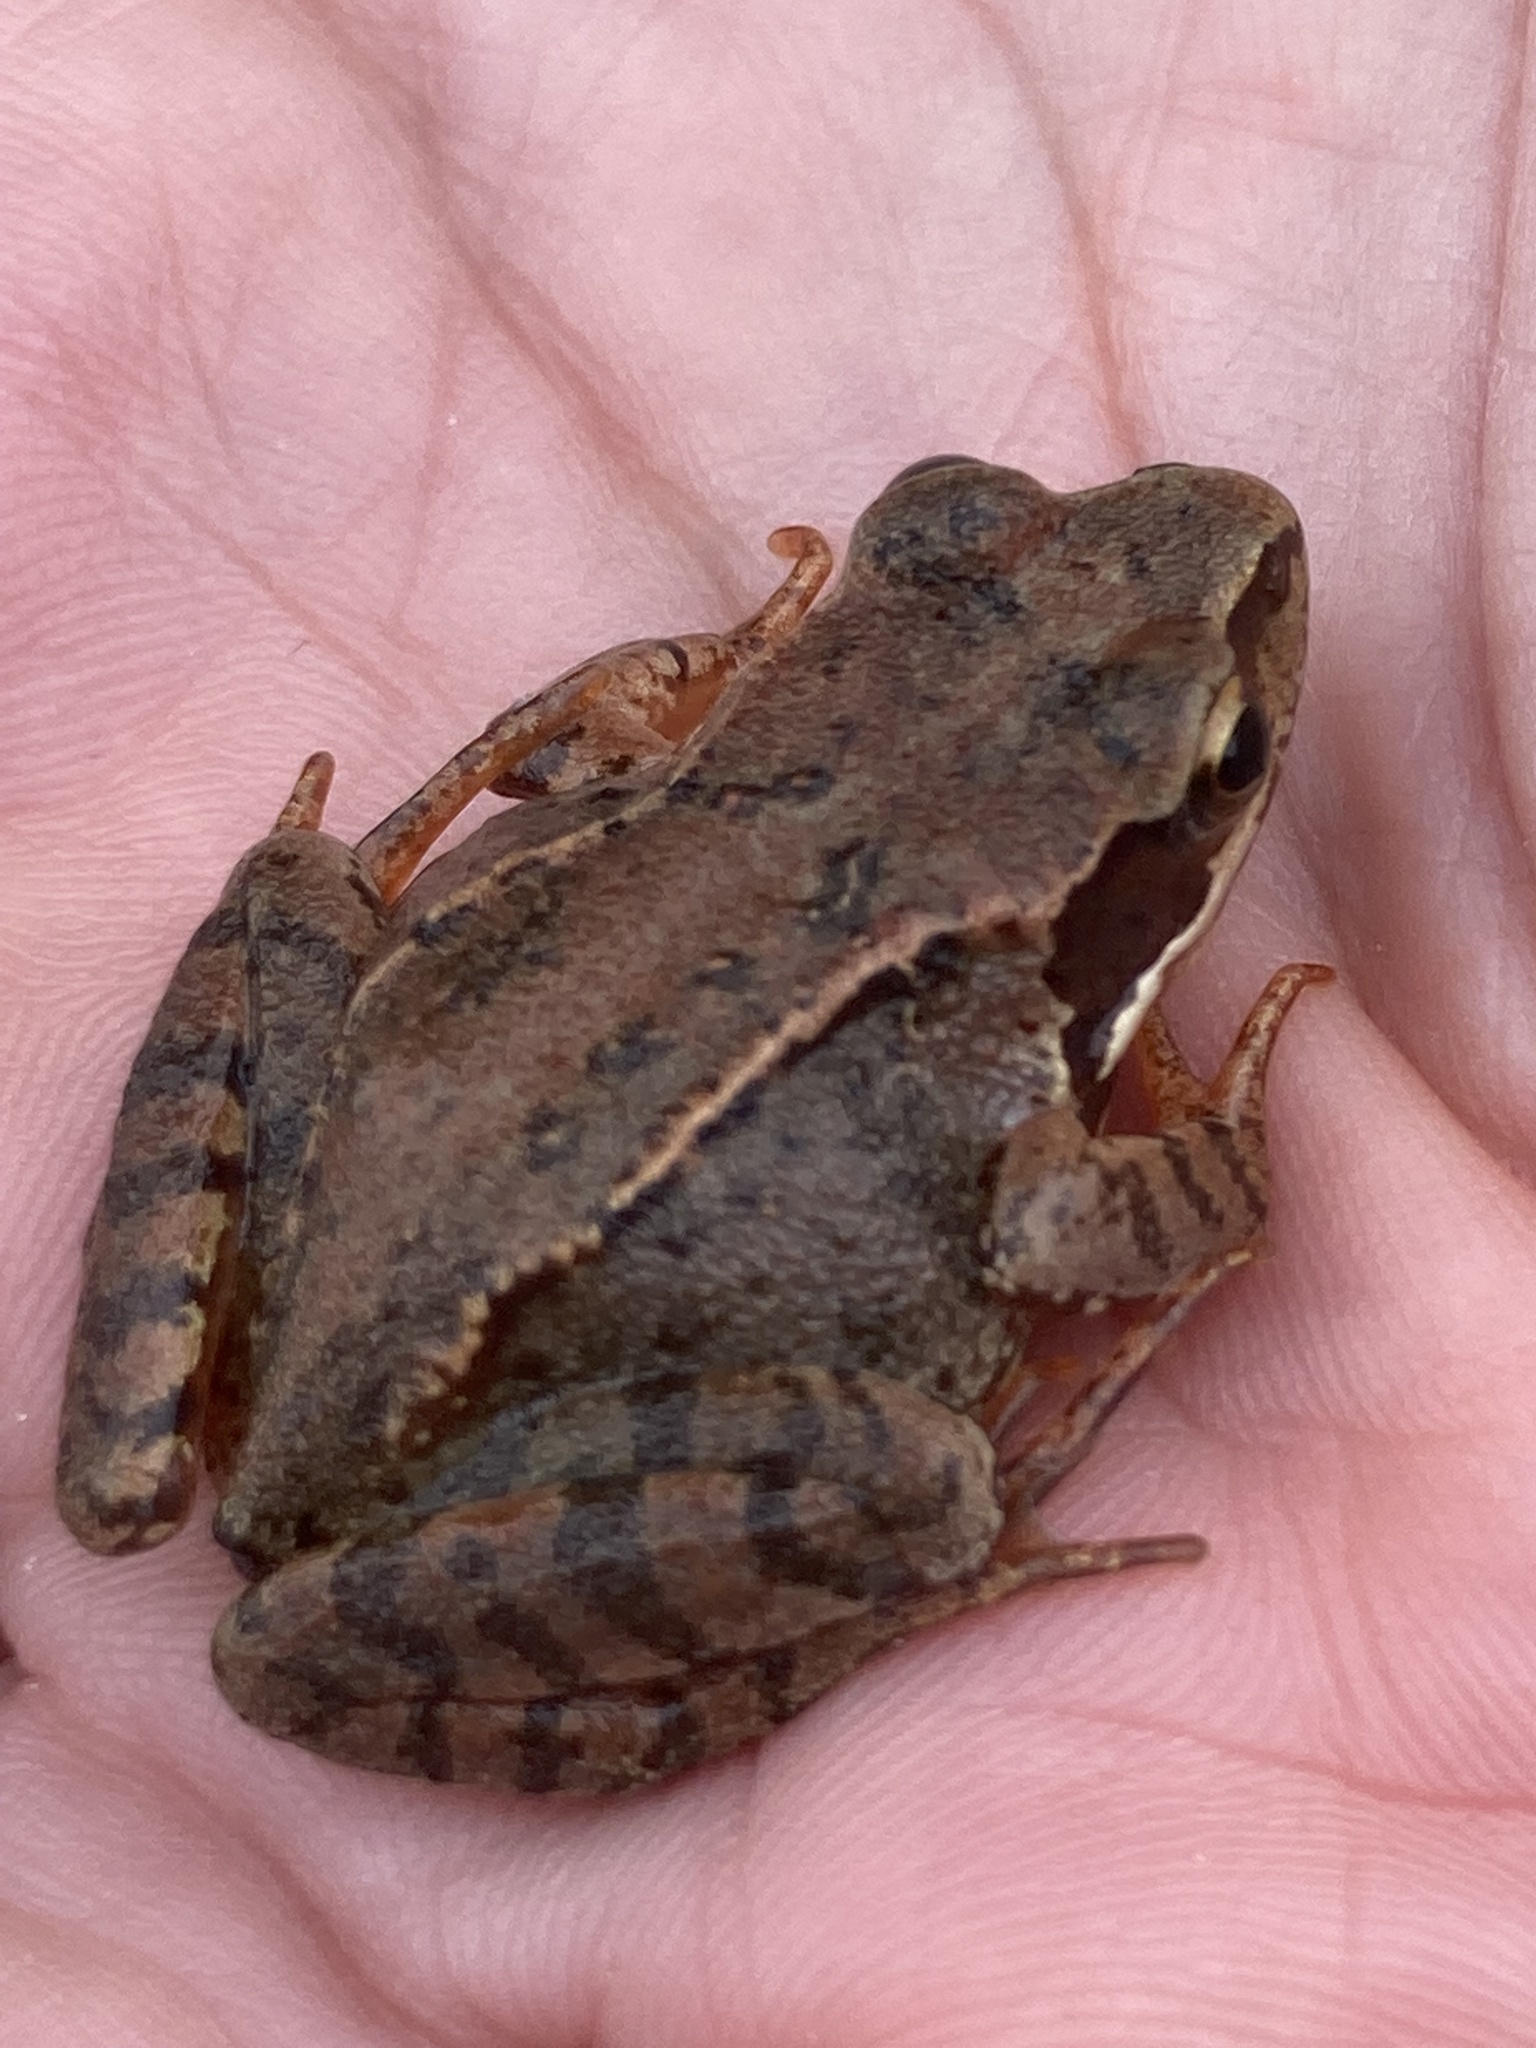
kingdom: Animalia
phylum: Chordata
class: Amphibia
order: Anura
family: Ranidae
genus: Rana
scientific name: Rana temporaria
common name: Common frog
